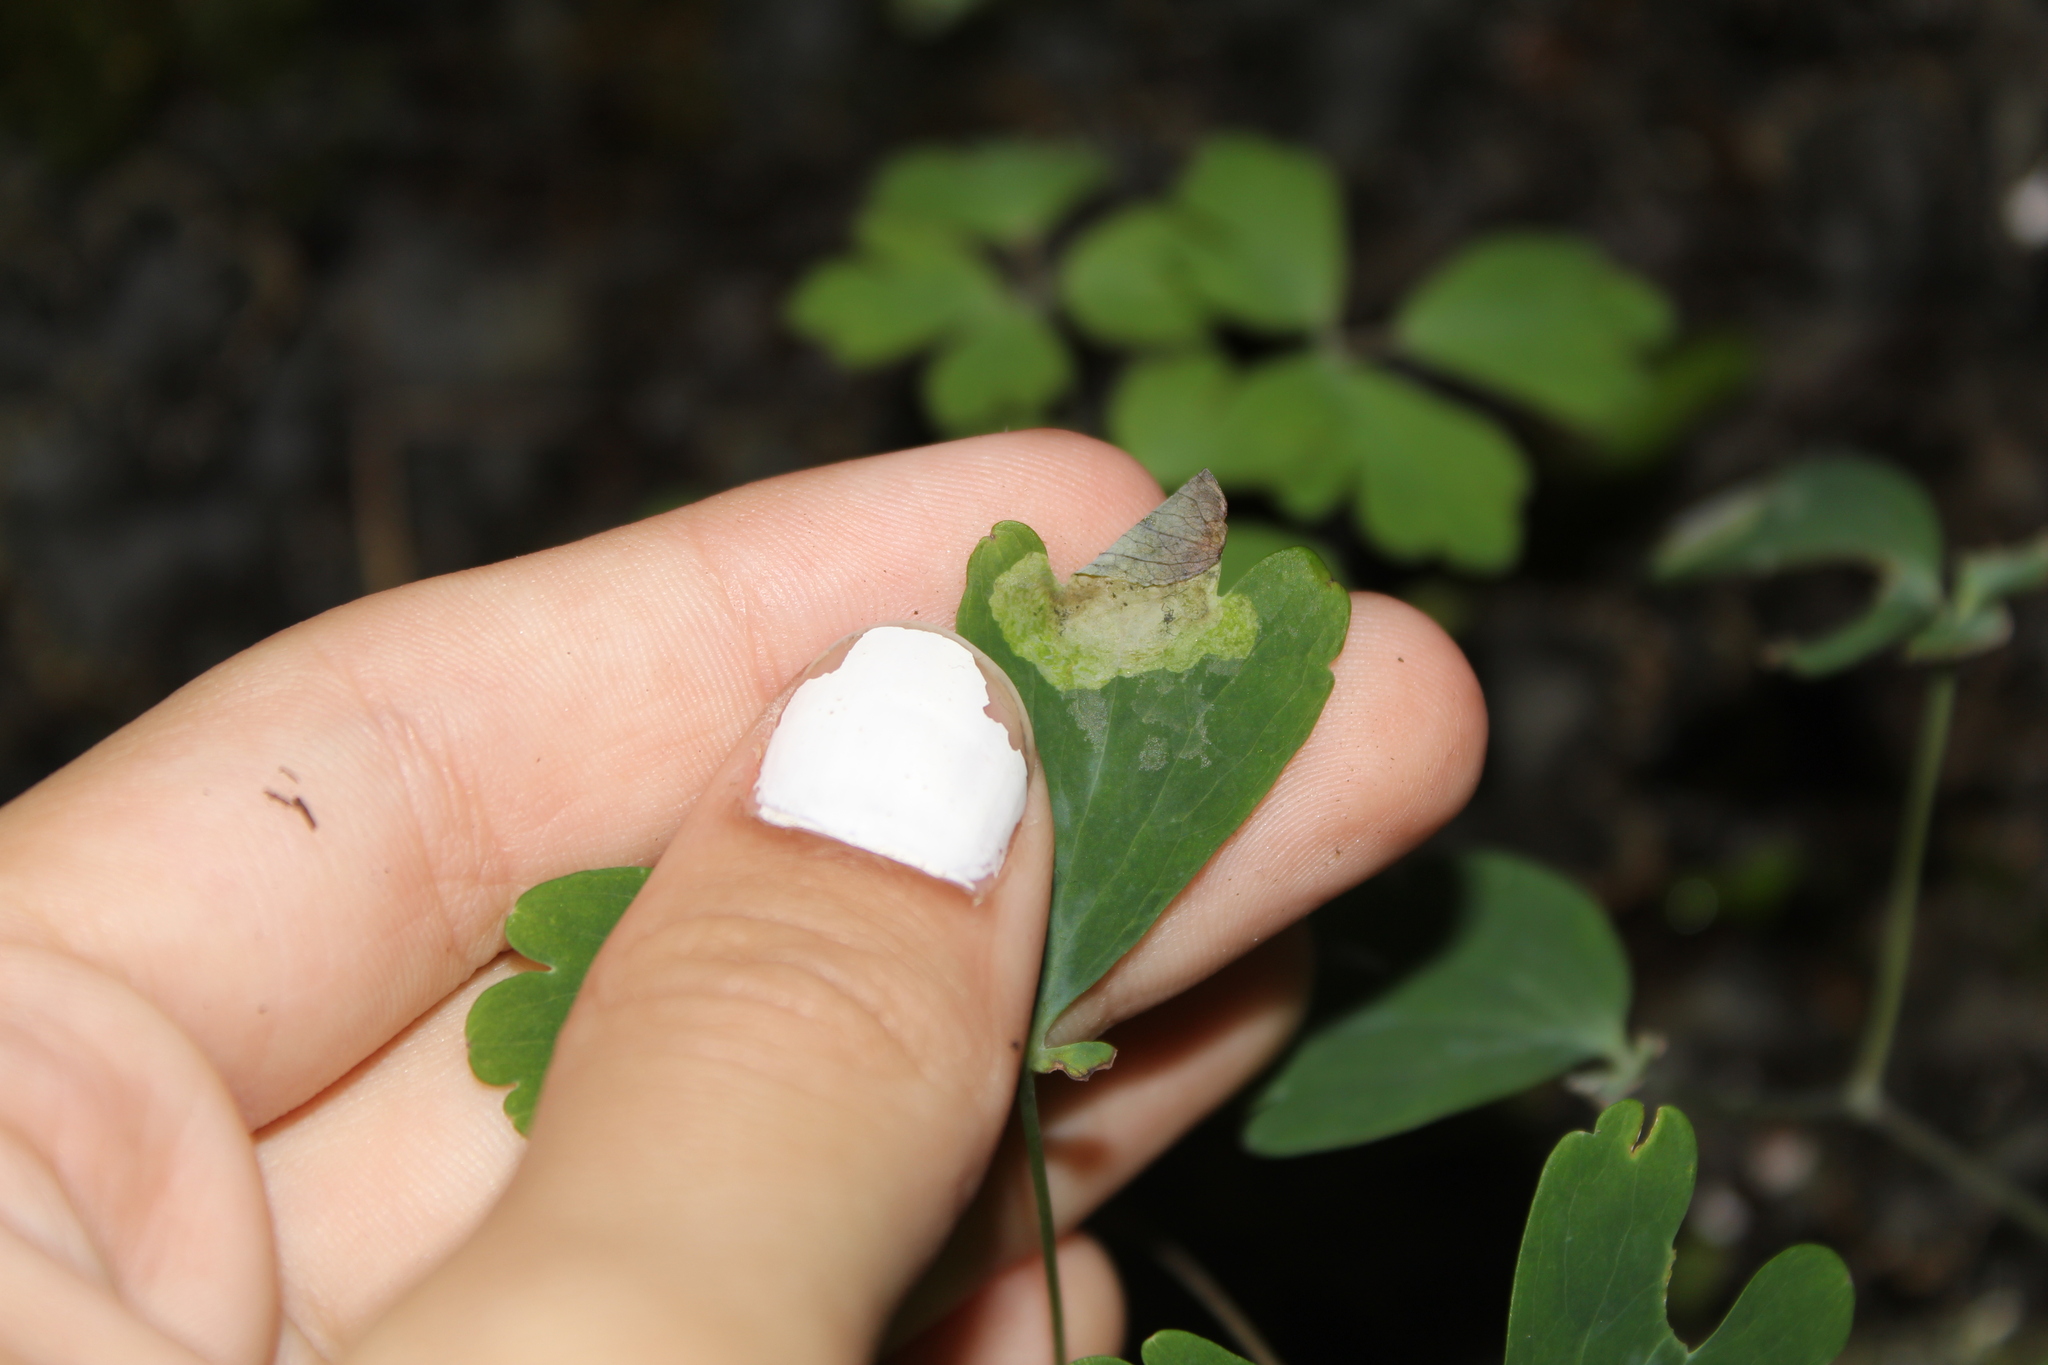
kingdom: Animalia
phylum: Arthropoda
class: Insecta
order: Diptera
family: Agromyzidae
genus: Phytomyza
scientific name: Phytomyza aquilegiana
